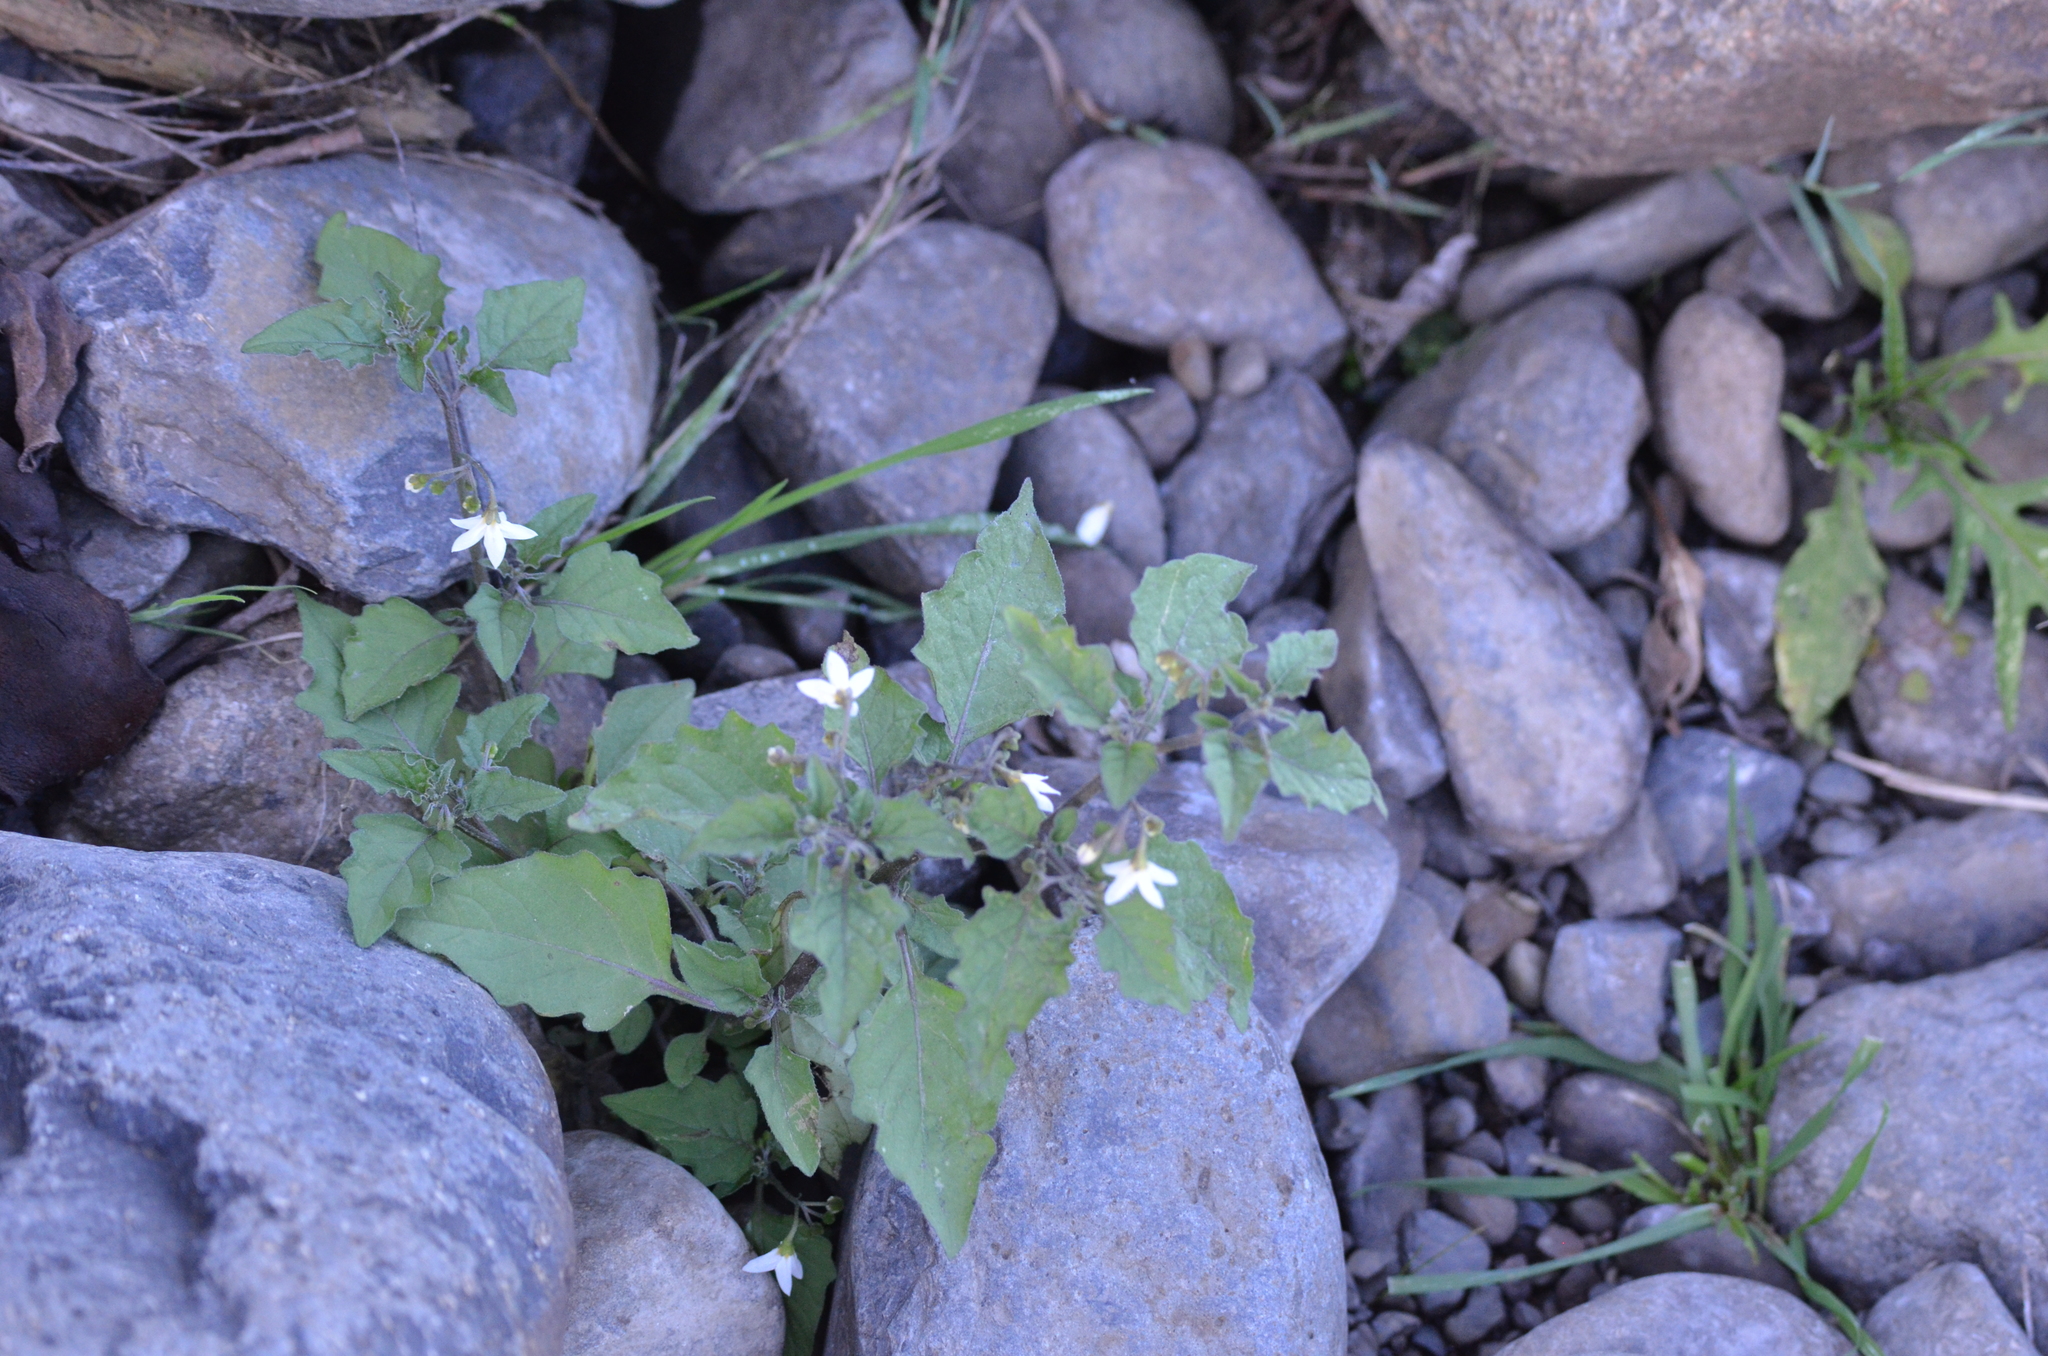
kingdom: Plantae
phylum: Tracheophyta
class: Magnoliopsida
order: Solanales
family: Solanaceae
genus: Solanum
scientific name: Solanum nigrum
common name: Black nightshade
